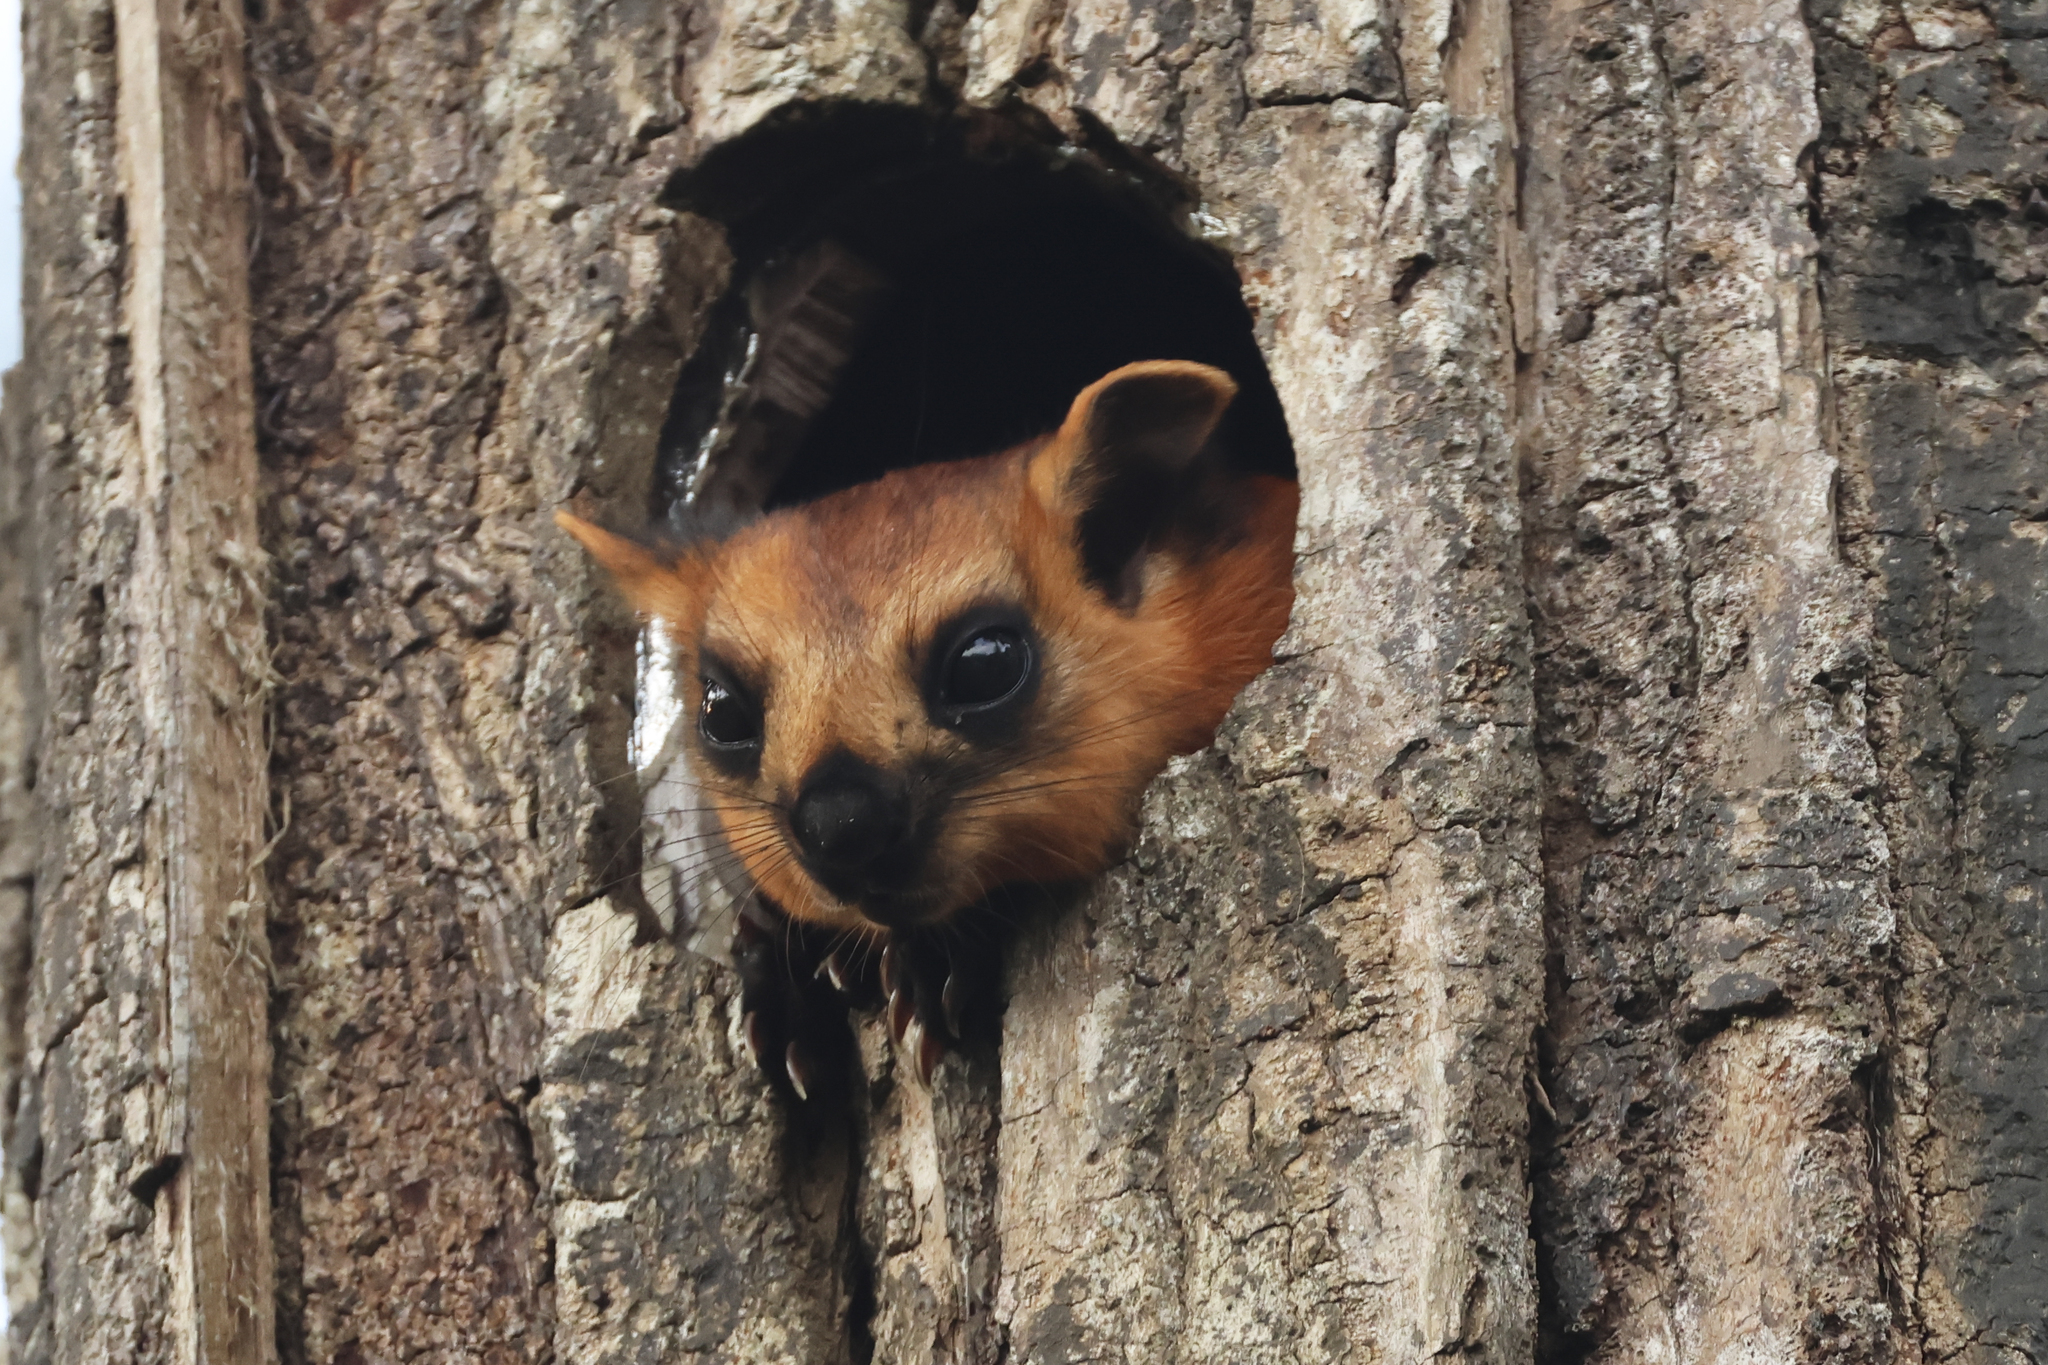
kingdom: Animalia
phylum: Chordata
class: Mammalia
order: Rodentia
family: Sciuridae
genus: Petaurista
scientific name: Petaurista petaurista
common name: Red giant flying squirrel
